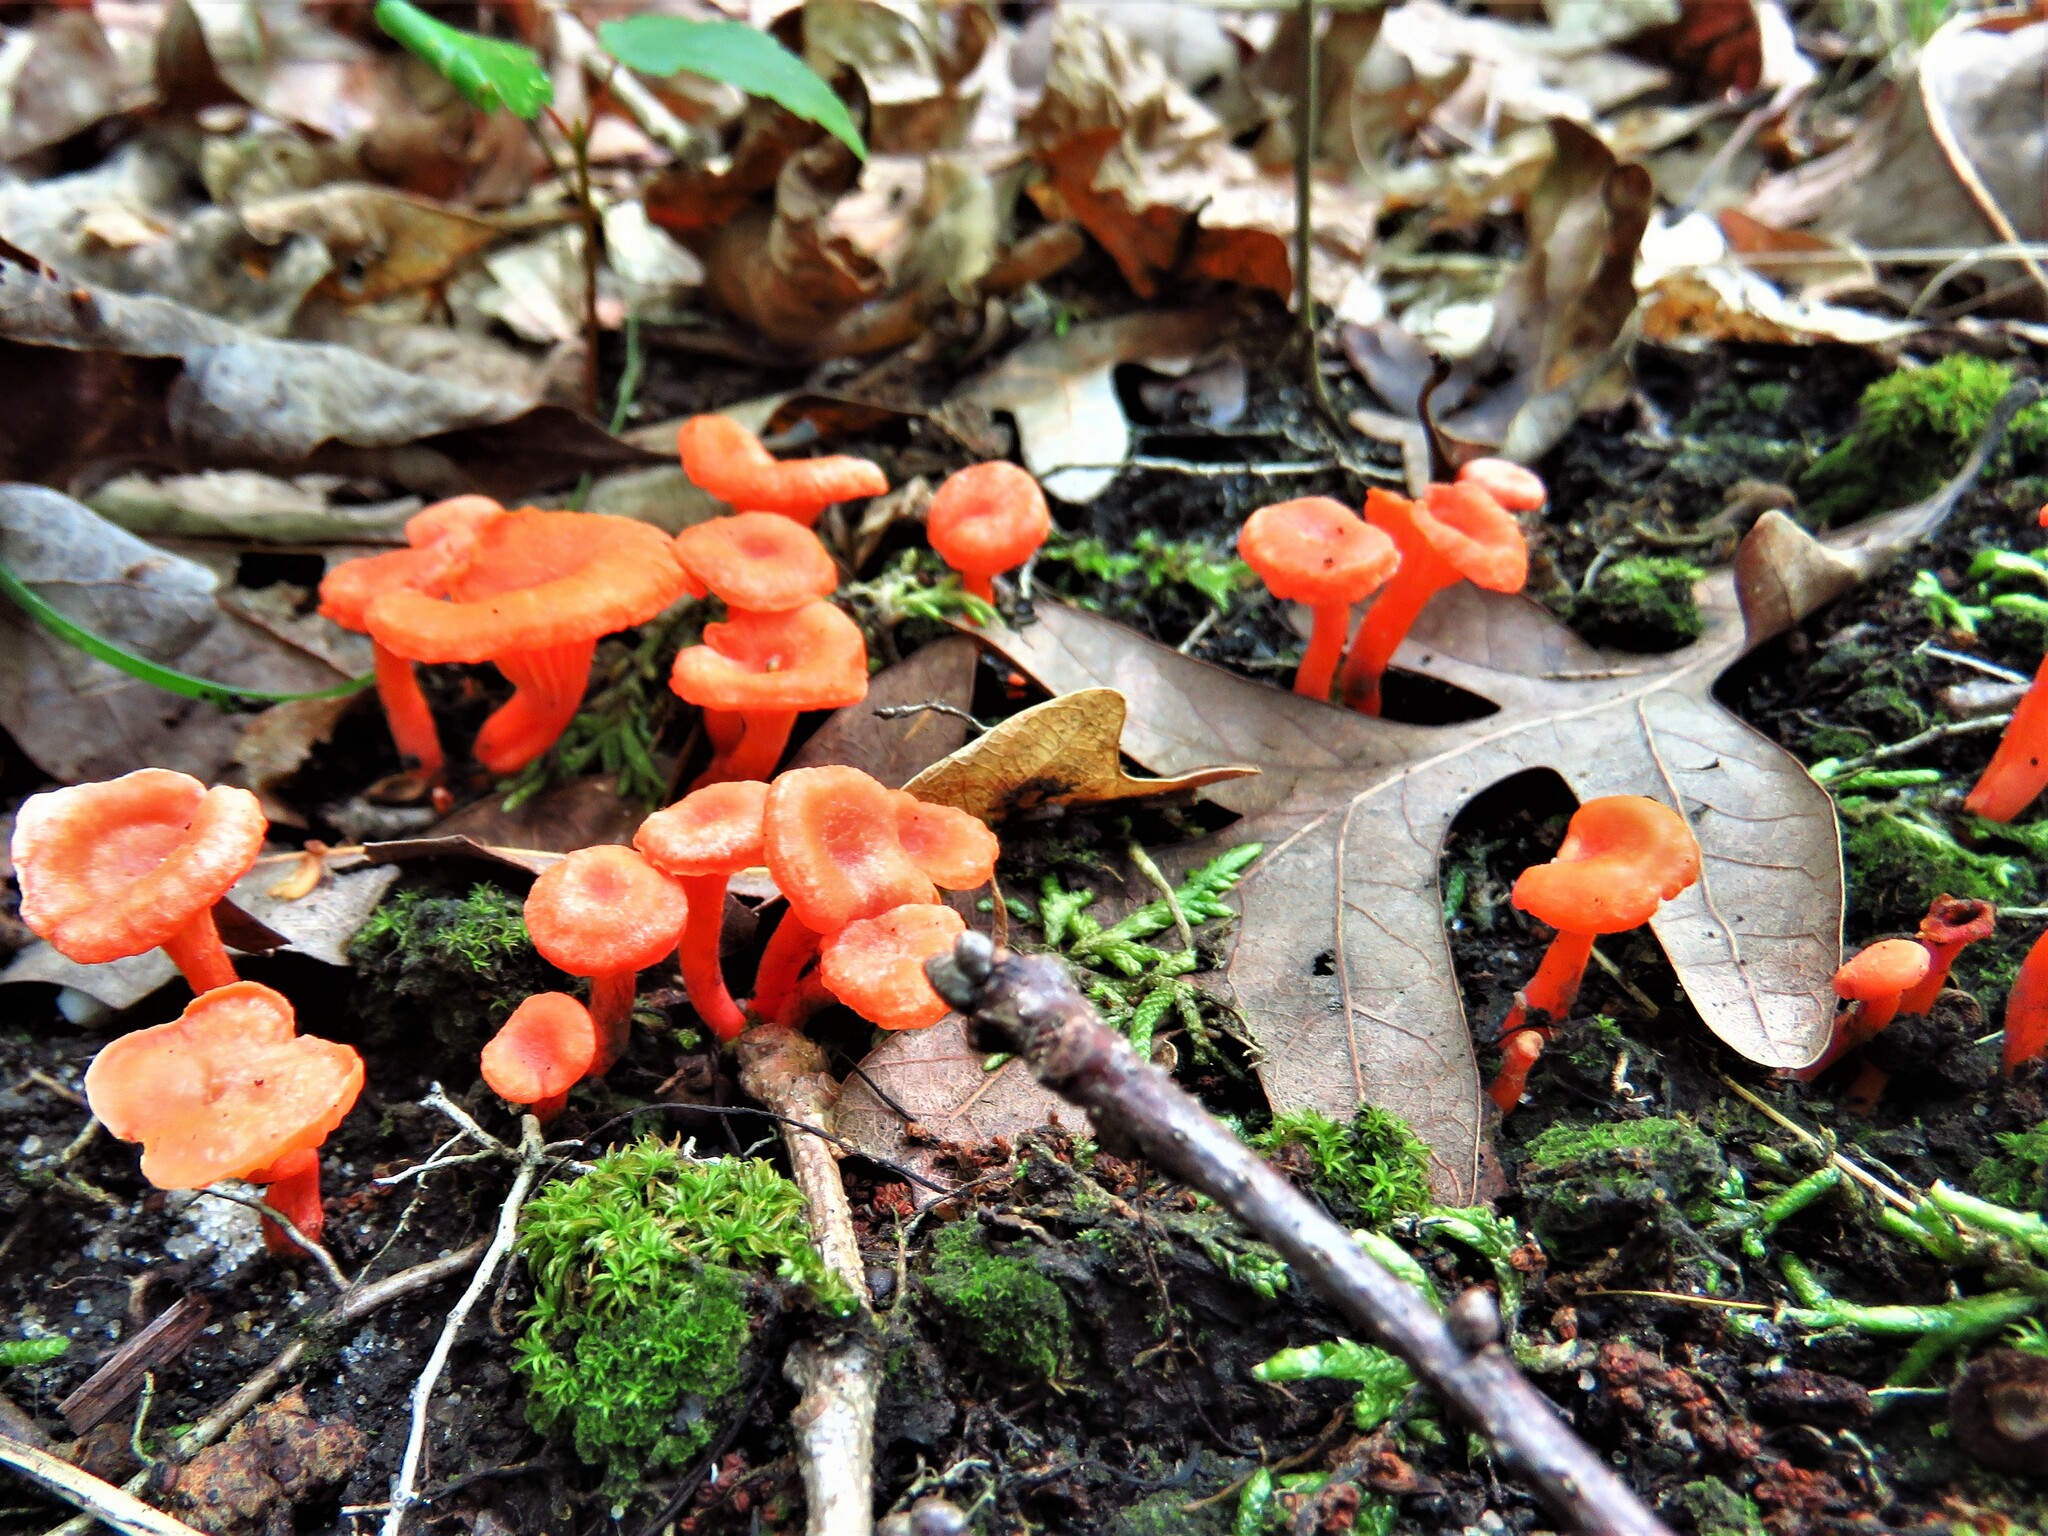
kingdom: Fungi
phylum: Basidiomycota
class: Agaricomycetes
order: Cantharellales
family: Hydnaceae
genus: Cantharellus
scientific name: Cantharellus cinnabarinus
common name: Cinnabar chanterelle
